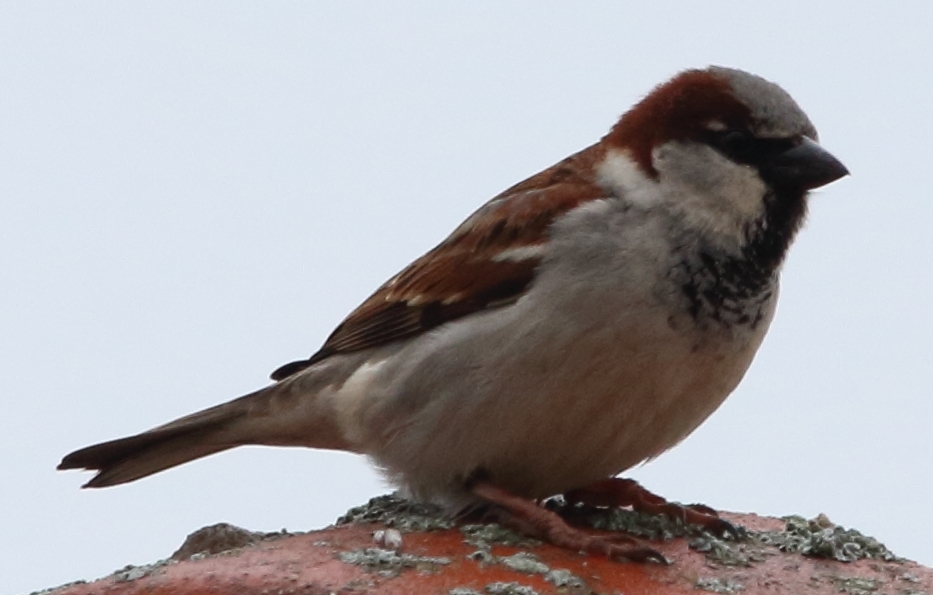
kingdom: Animalia
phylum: Chordata
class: Aves
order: Passeriformes
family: Passeridae
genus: Passer
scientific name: Passer domesticus
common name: House sparrow
